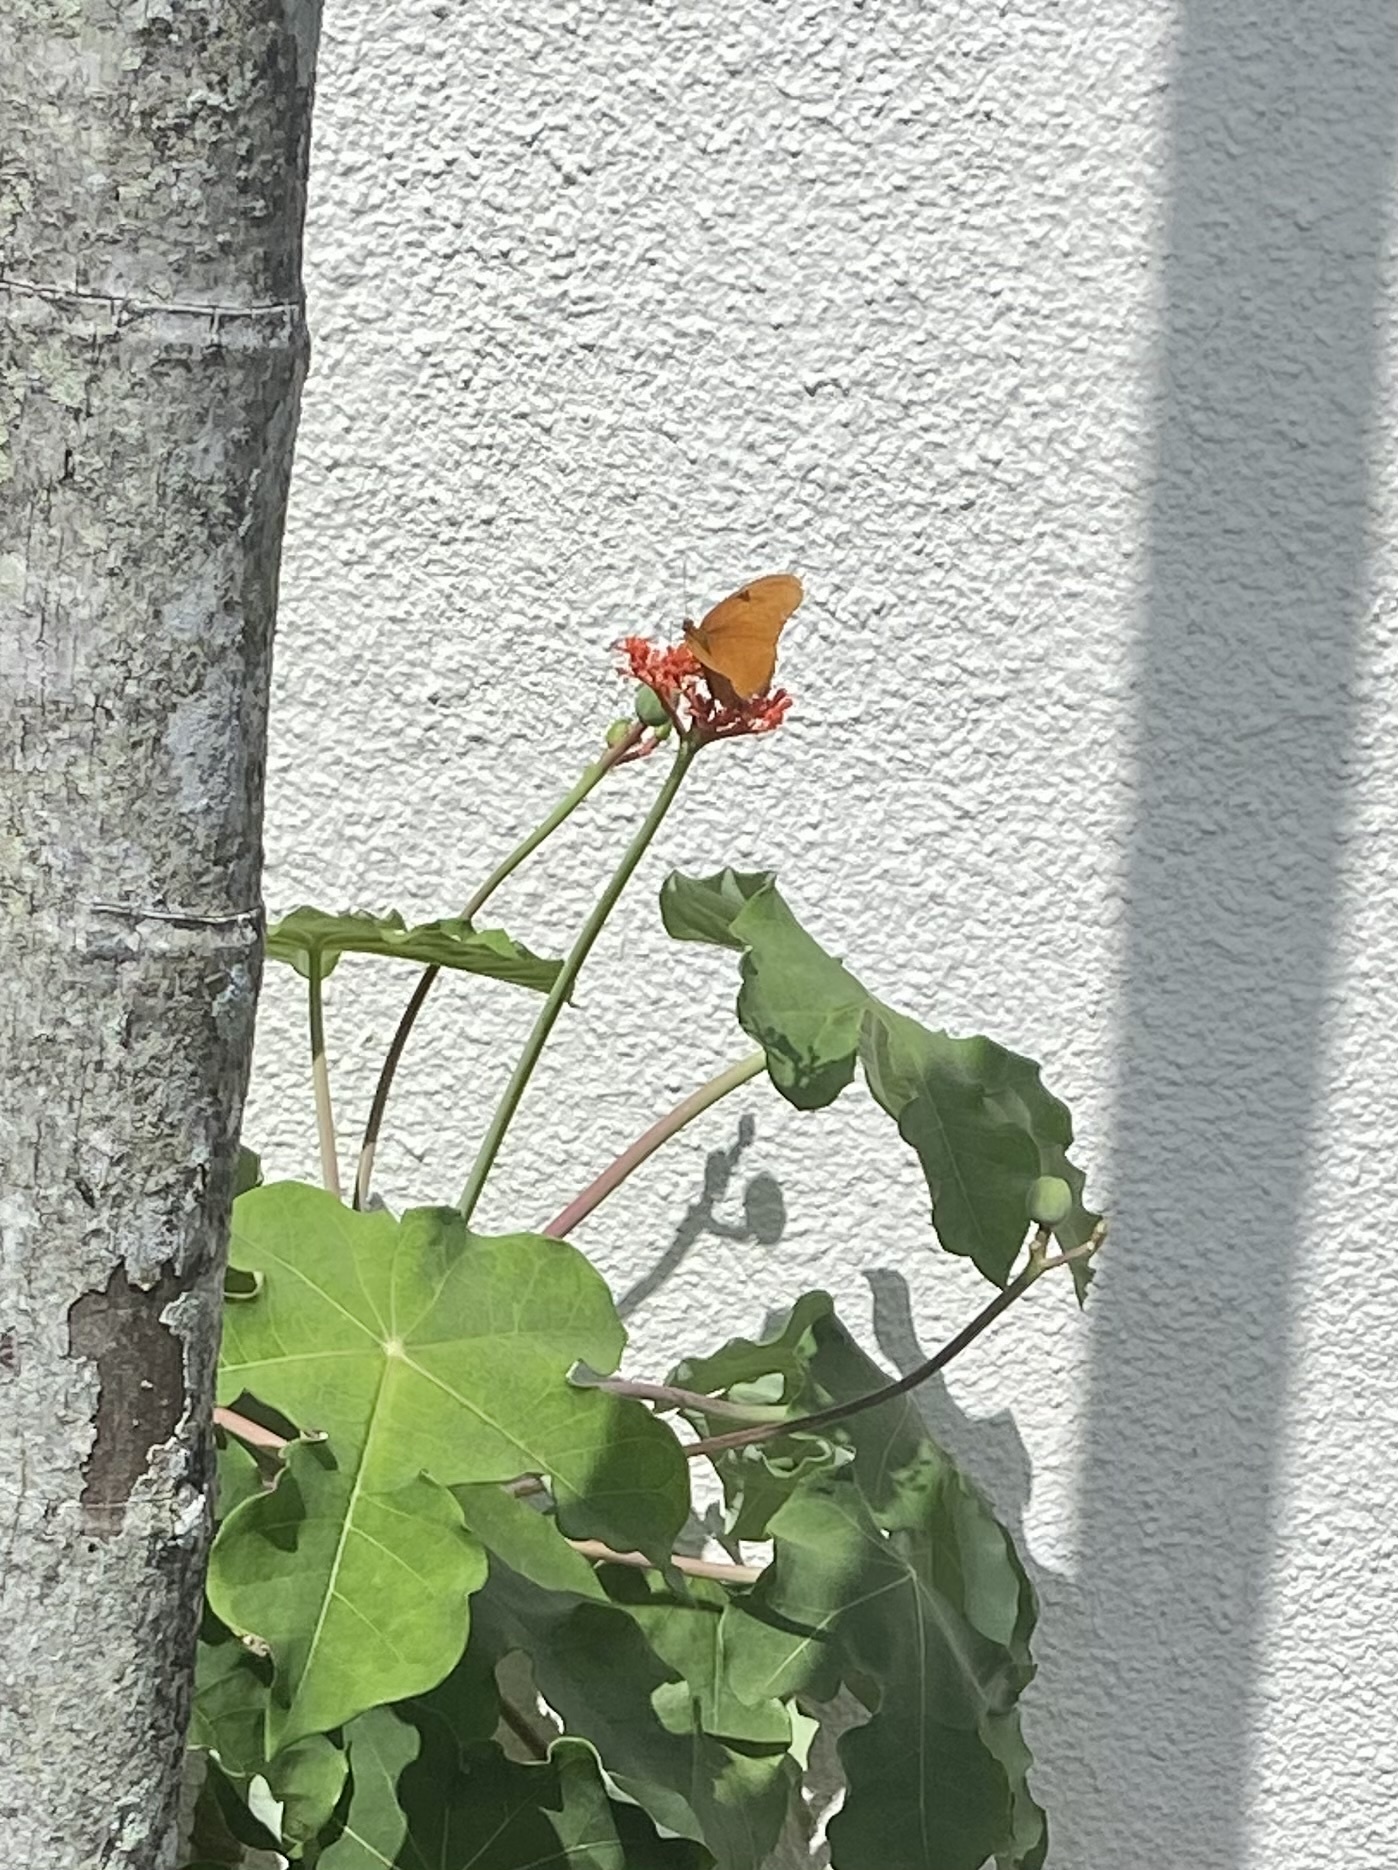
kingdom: Animalia
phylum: Arthropoda
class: Insecta
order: Lepidoptera
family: Nymphalidae
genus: Dryas
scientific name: Dryas iulia
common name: Flambeau
